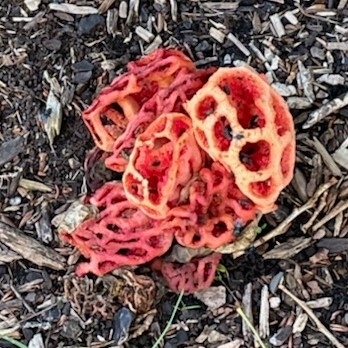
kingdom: Fungi
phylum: Basidiomycota
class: Agaricomycetes
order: Phallales
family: Phallaceae
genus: Clathrus
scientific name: Clathrus ruber
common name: Red cage
